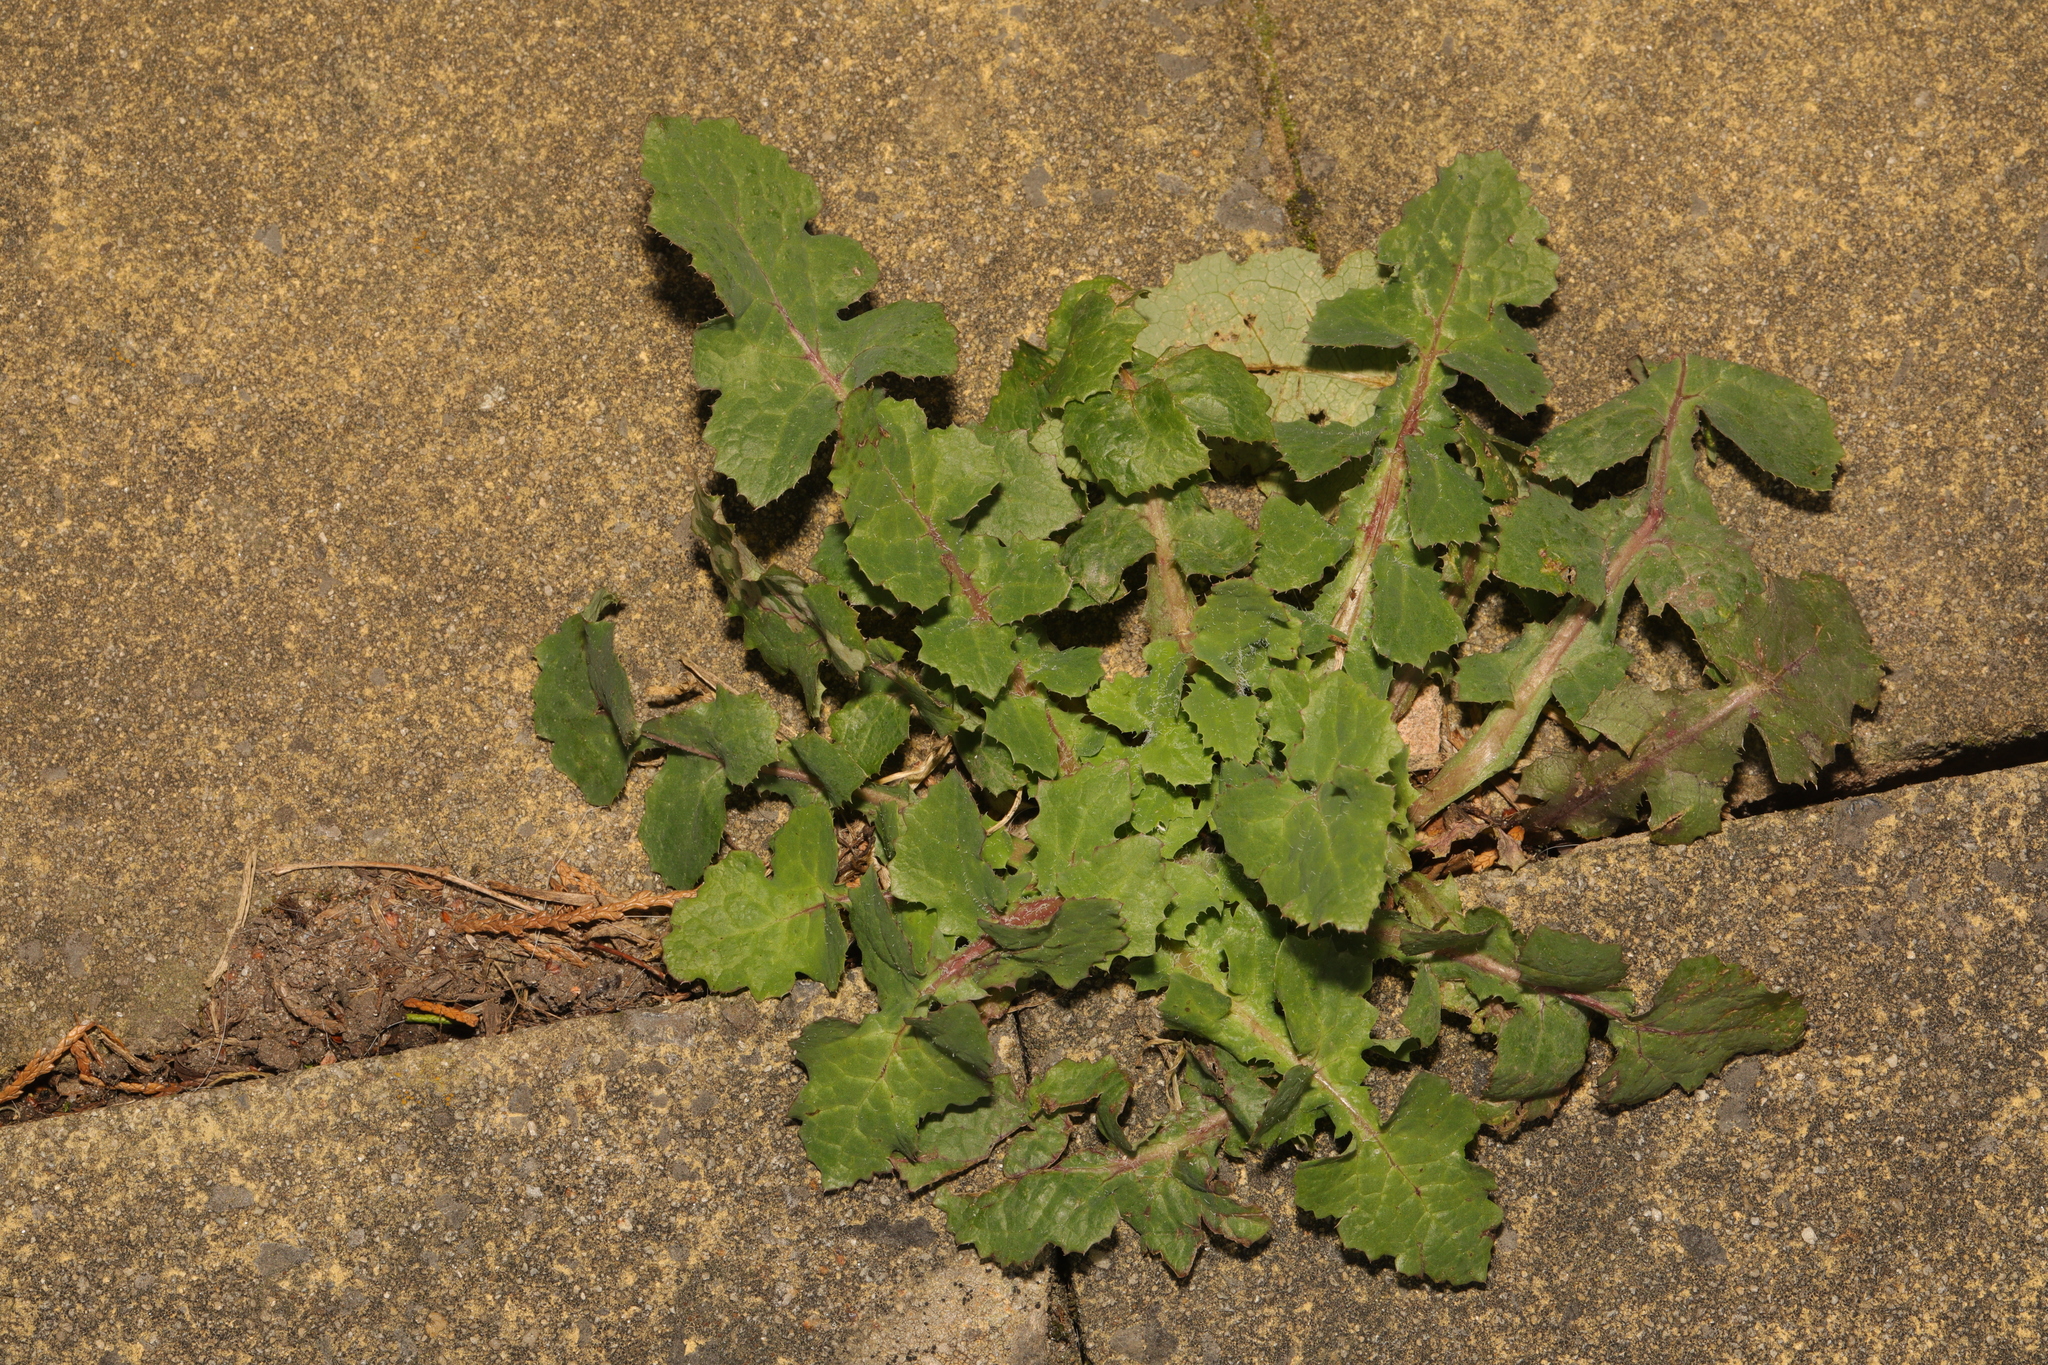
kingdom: Plantae
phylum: Tracheophyta
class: Magnoliopsida
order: Asterales
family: Asteraceae
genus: Sonchus
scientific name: Sonchus oleraceus
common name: Common sowthistle
